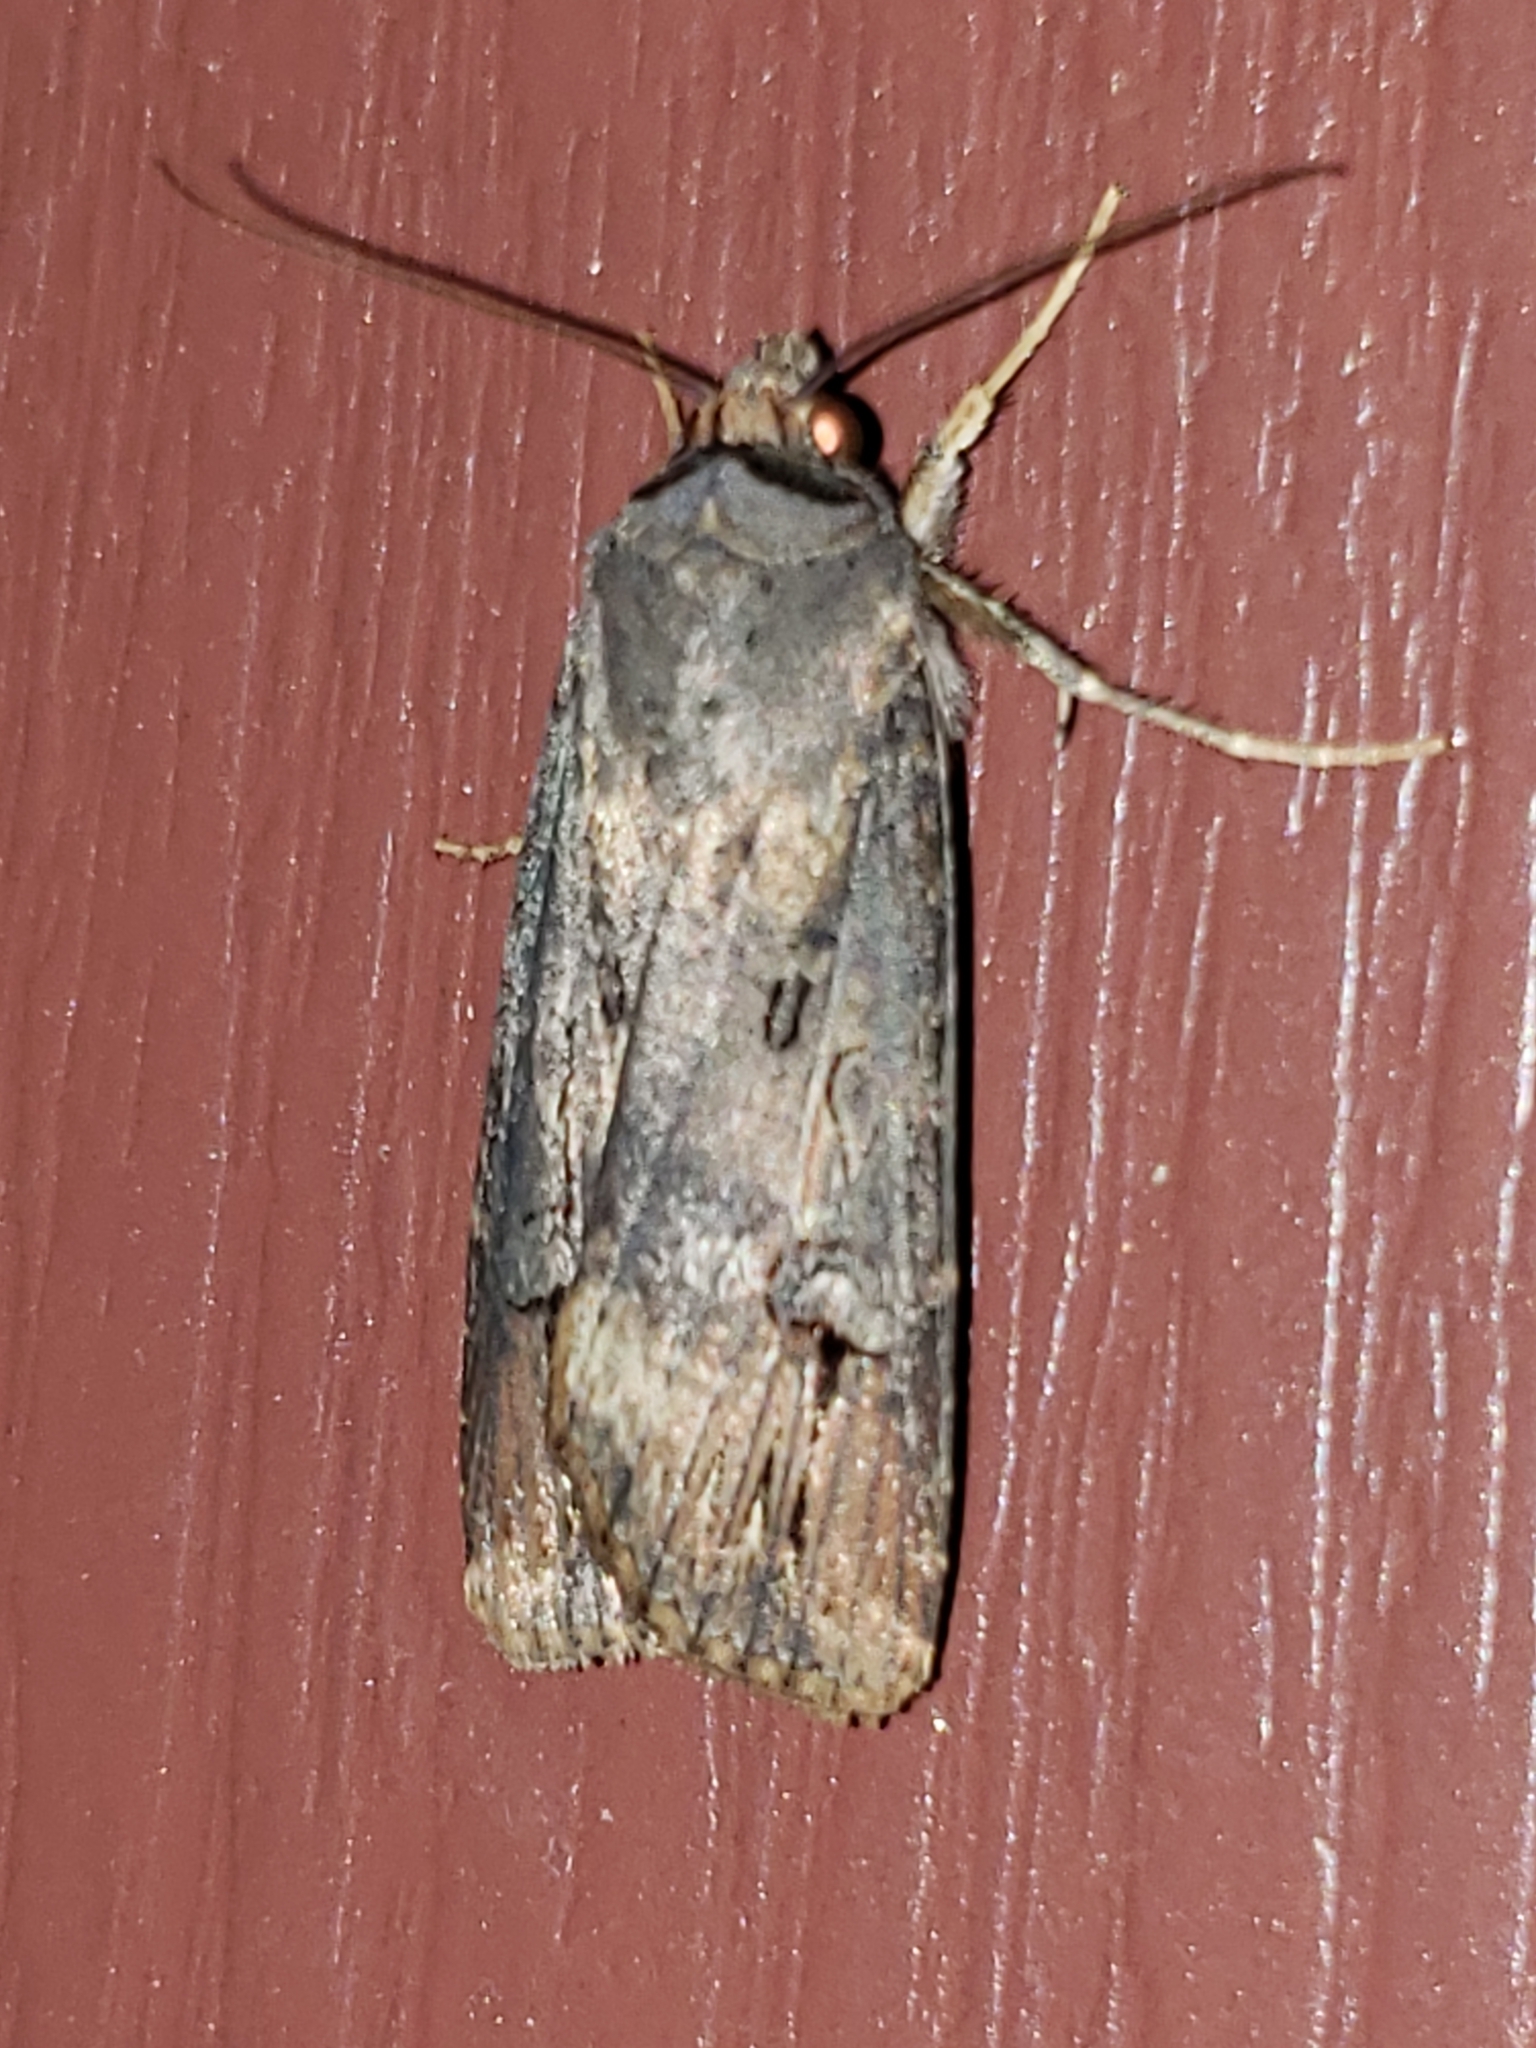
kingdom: Animalia
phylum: Arthropoda
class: Insecta
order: Lepidoptera
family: Noctuidae
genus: Agrotis
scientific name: Agrotis ipsilon
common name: Dark sword-grass
